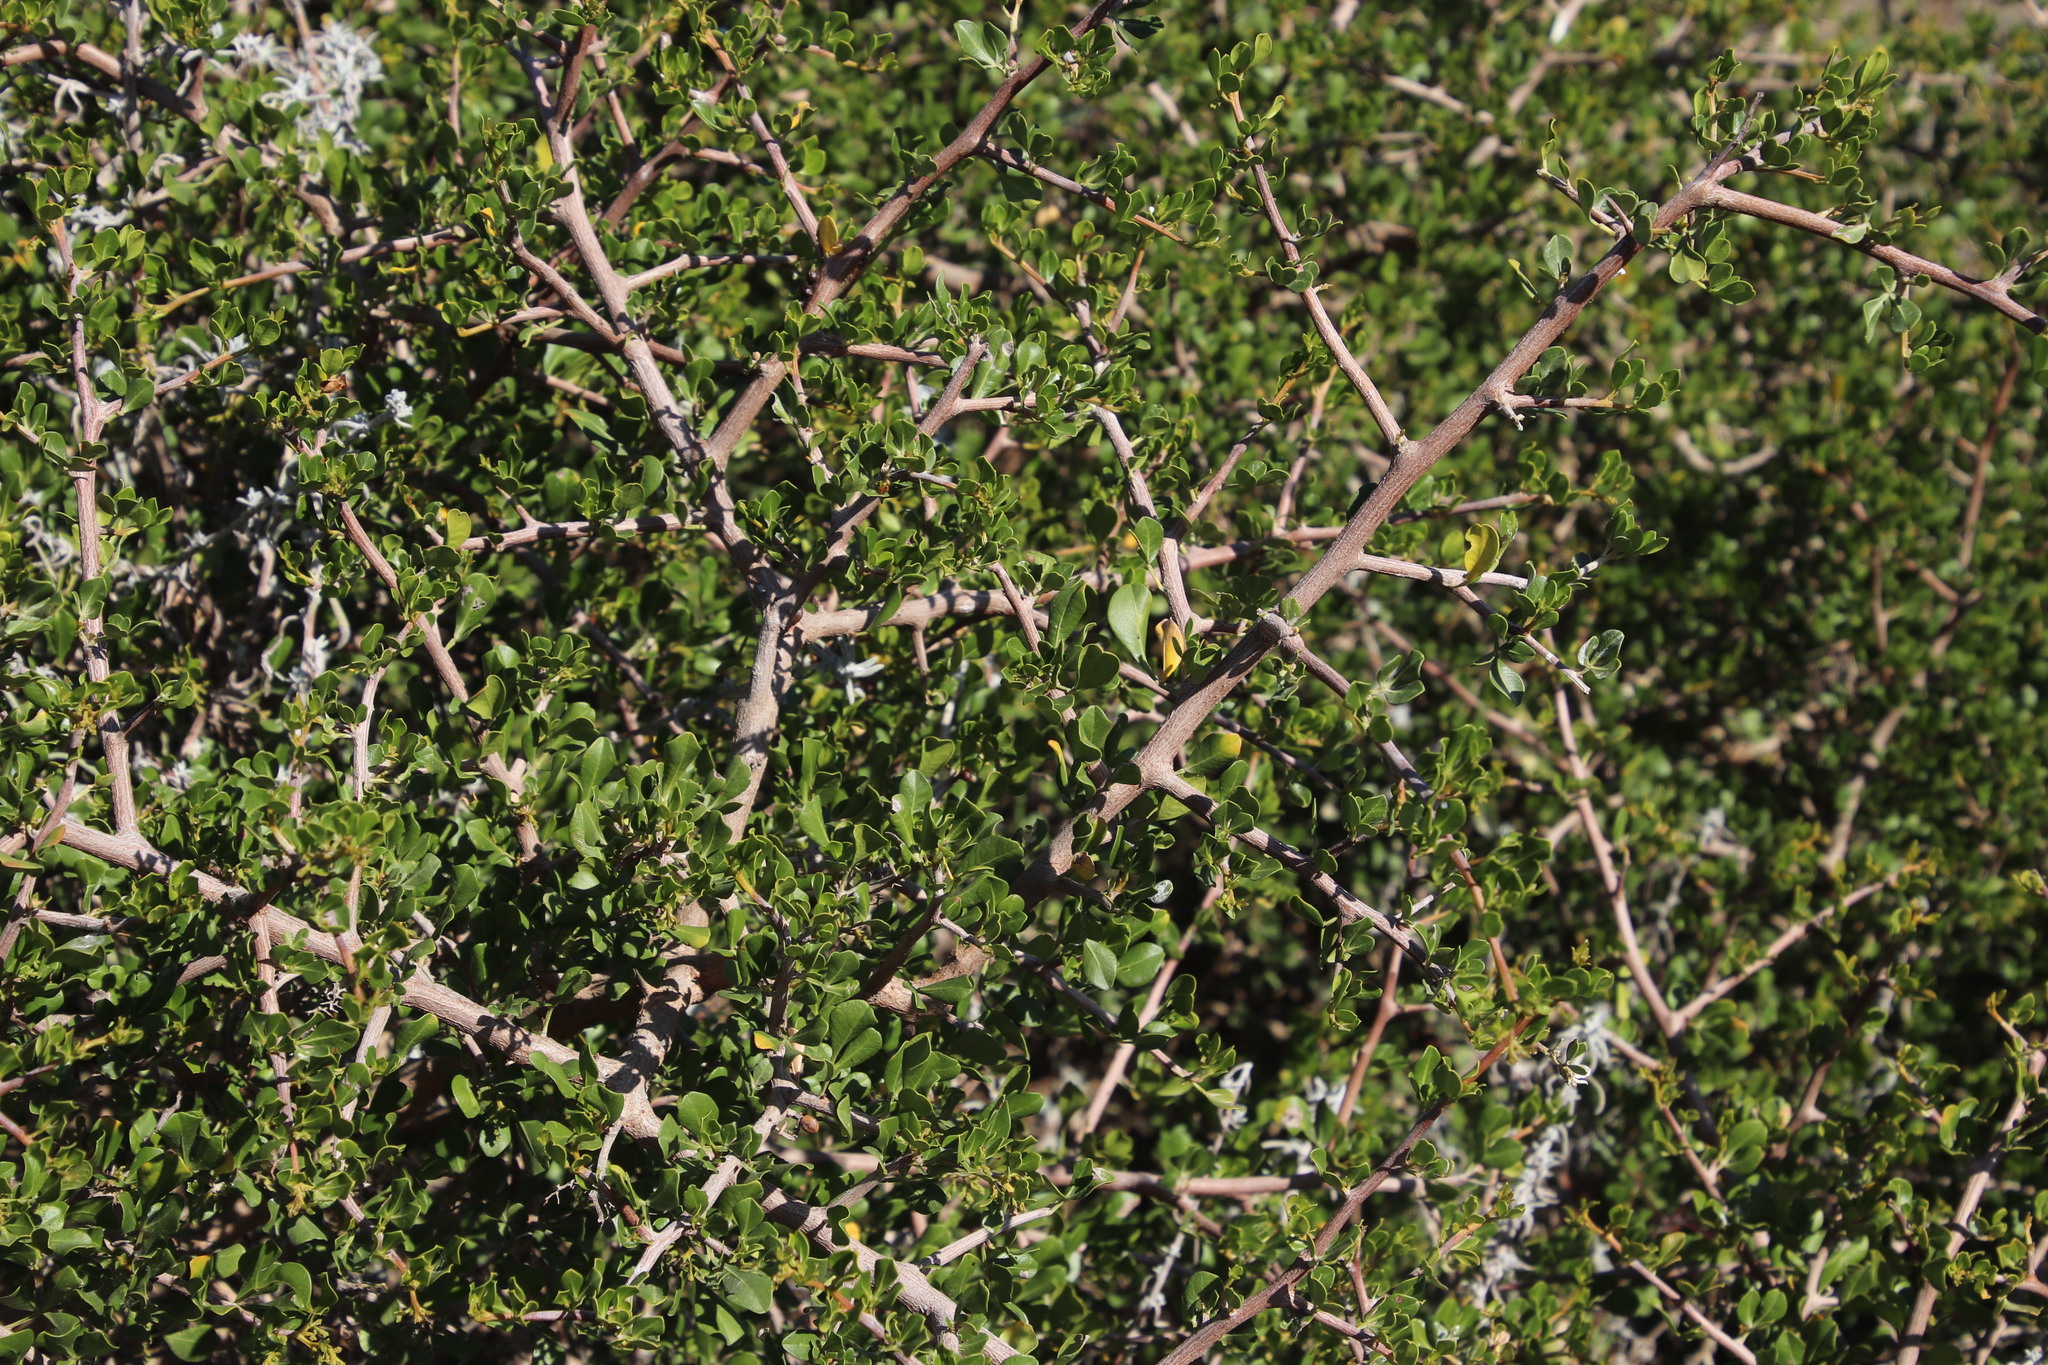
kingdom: Plantae
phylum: Tracheophyta
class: Magnoliopsida
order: Sapindales
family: Anacardiaceae
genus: Searsia
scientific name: Searsia glauca
